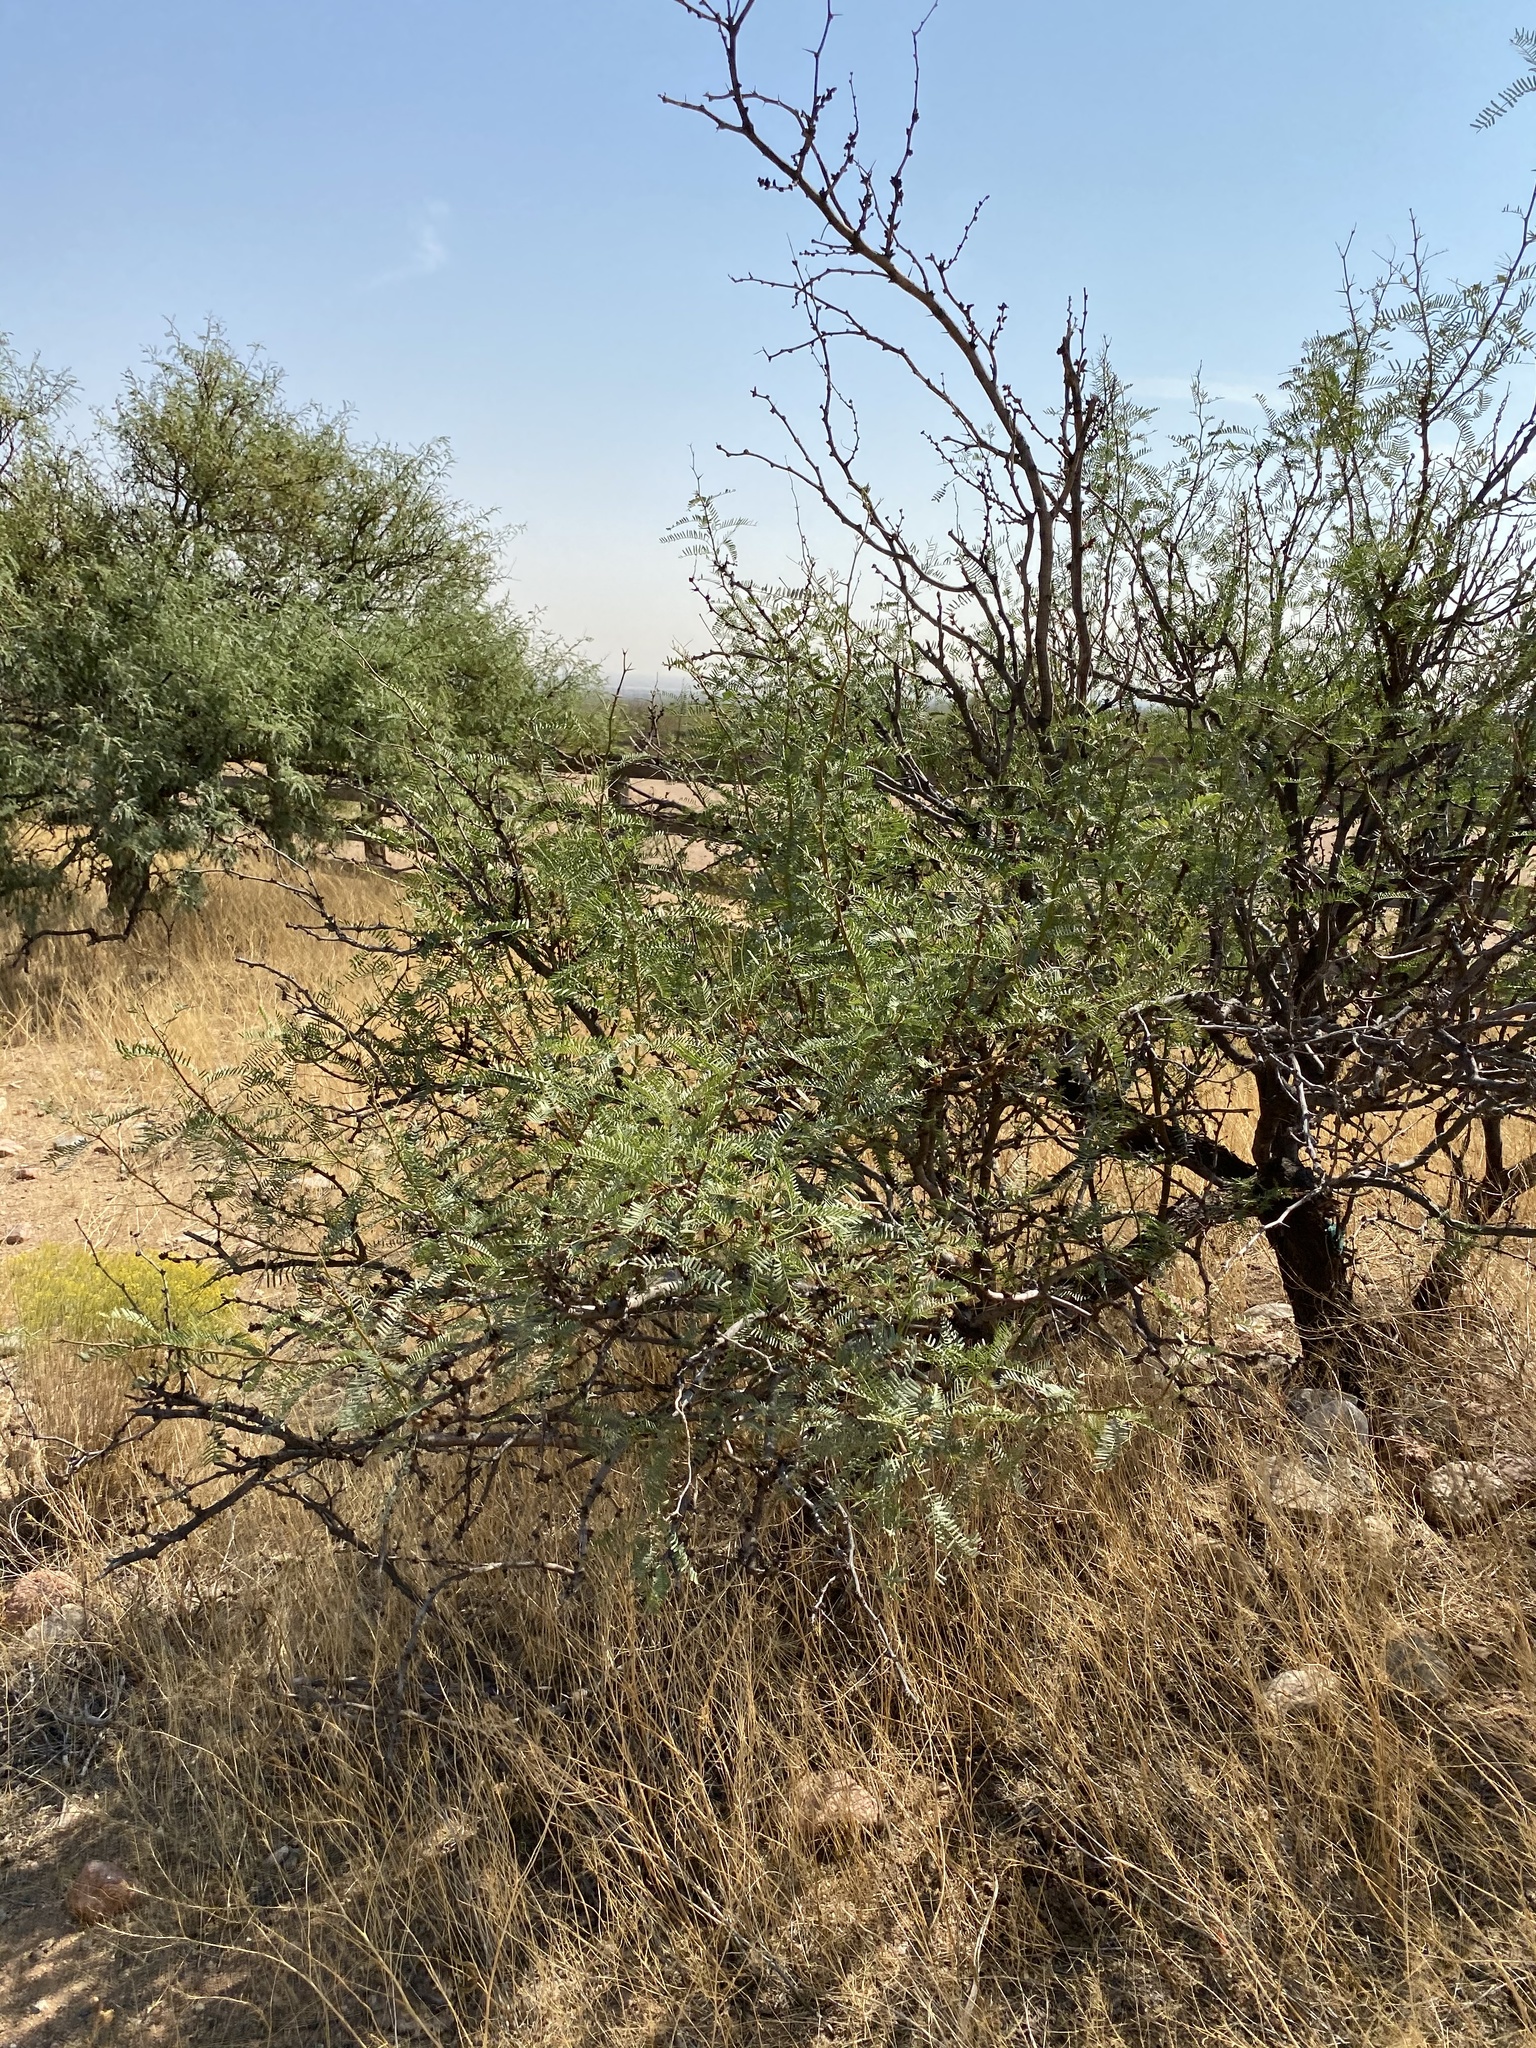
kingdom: Plantae
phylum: Tracheophyta
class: Magnoliopsida
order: Fabales
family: Fabaceae
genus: Prosopis
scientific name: Prosopis glandulosa
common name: Honey mesquite
